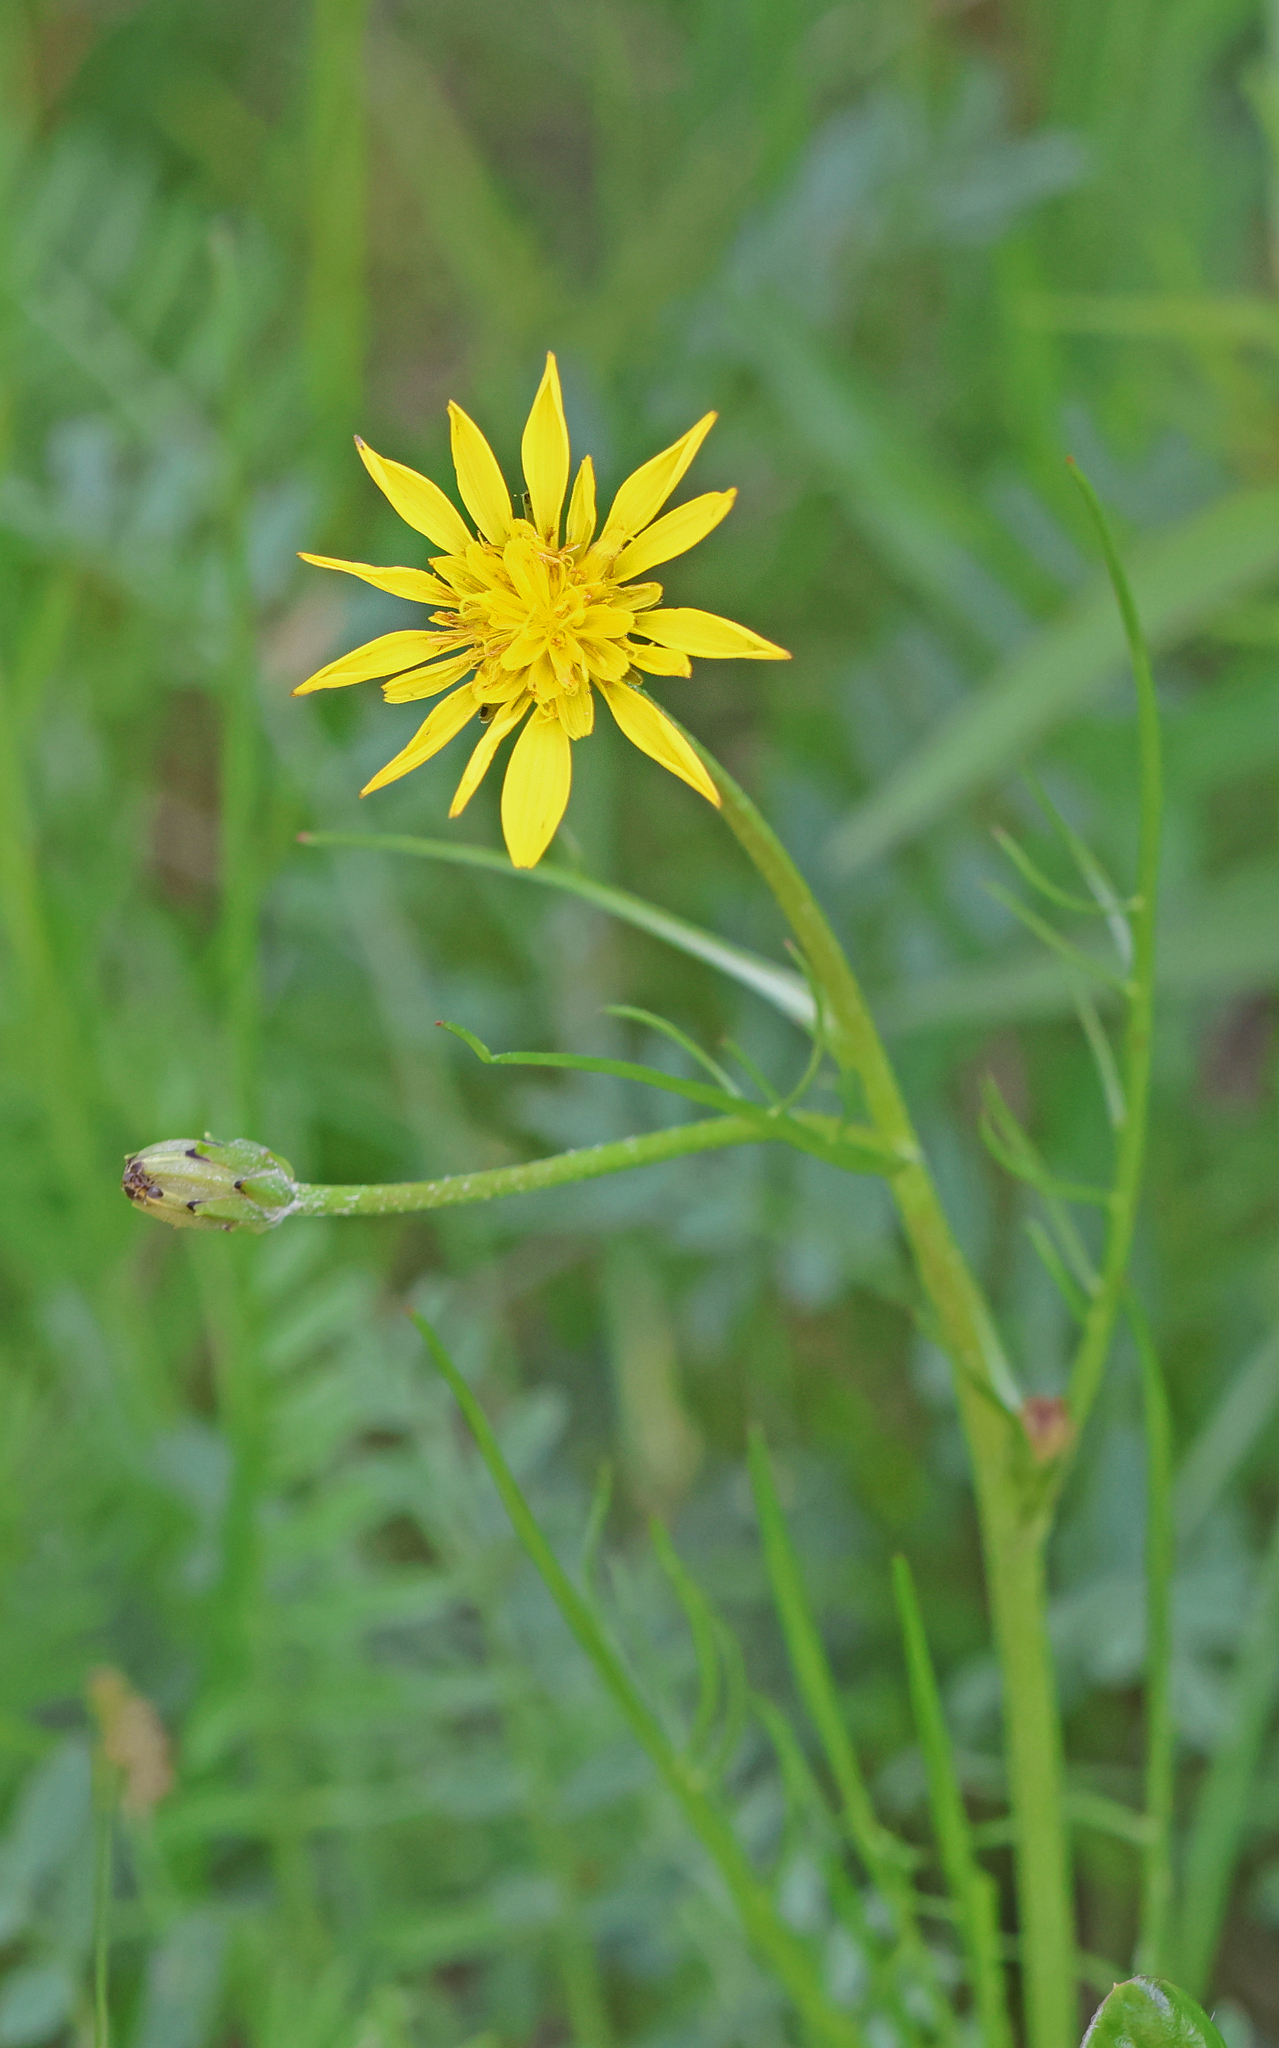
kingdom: Plantae
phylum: Tracheophyta
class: Magnoliopsida
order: Asterales
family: Asteraceae
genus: Scorzonera
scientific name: Scorzonera cana
